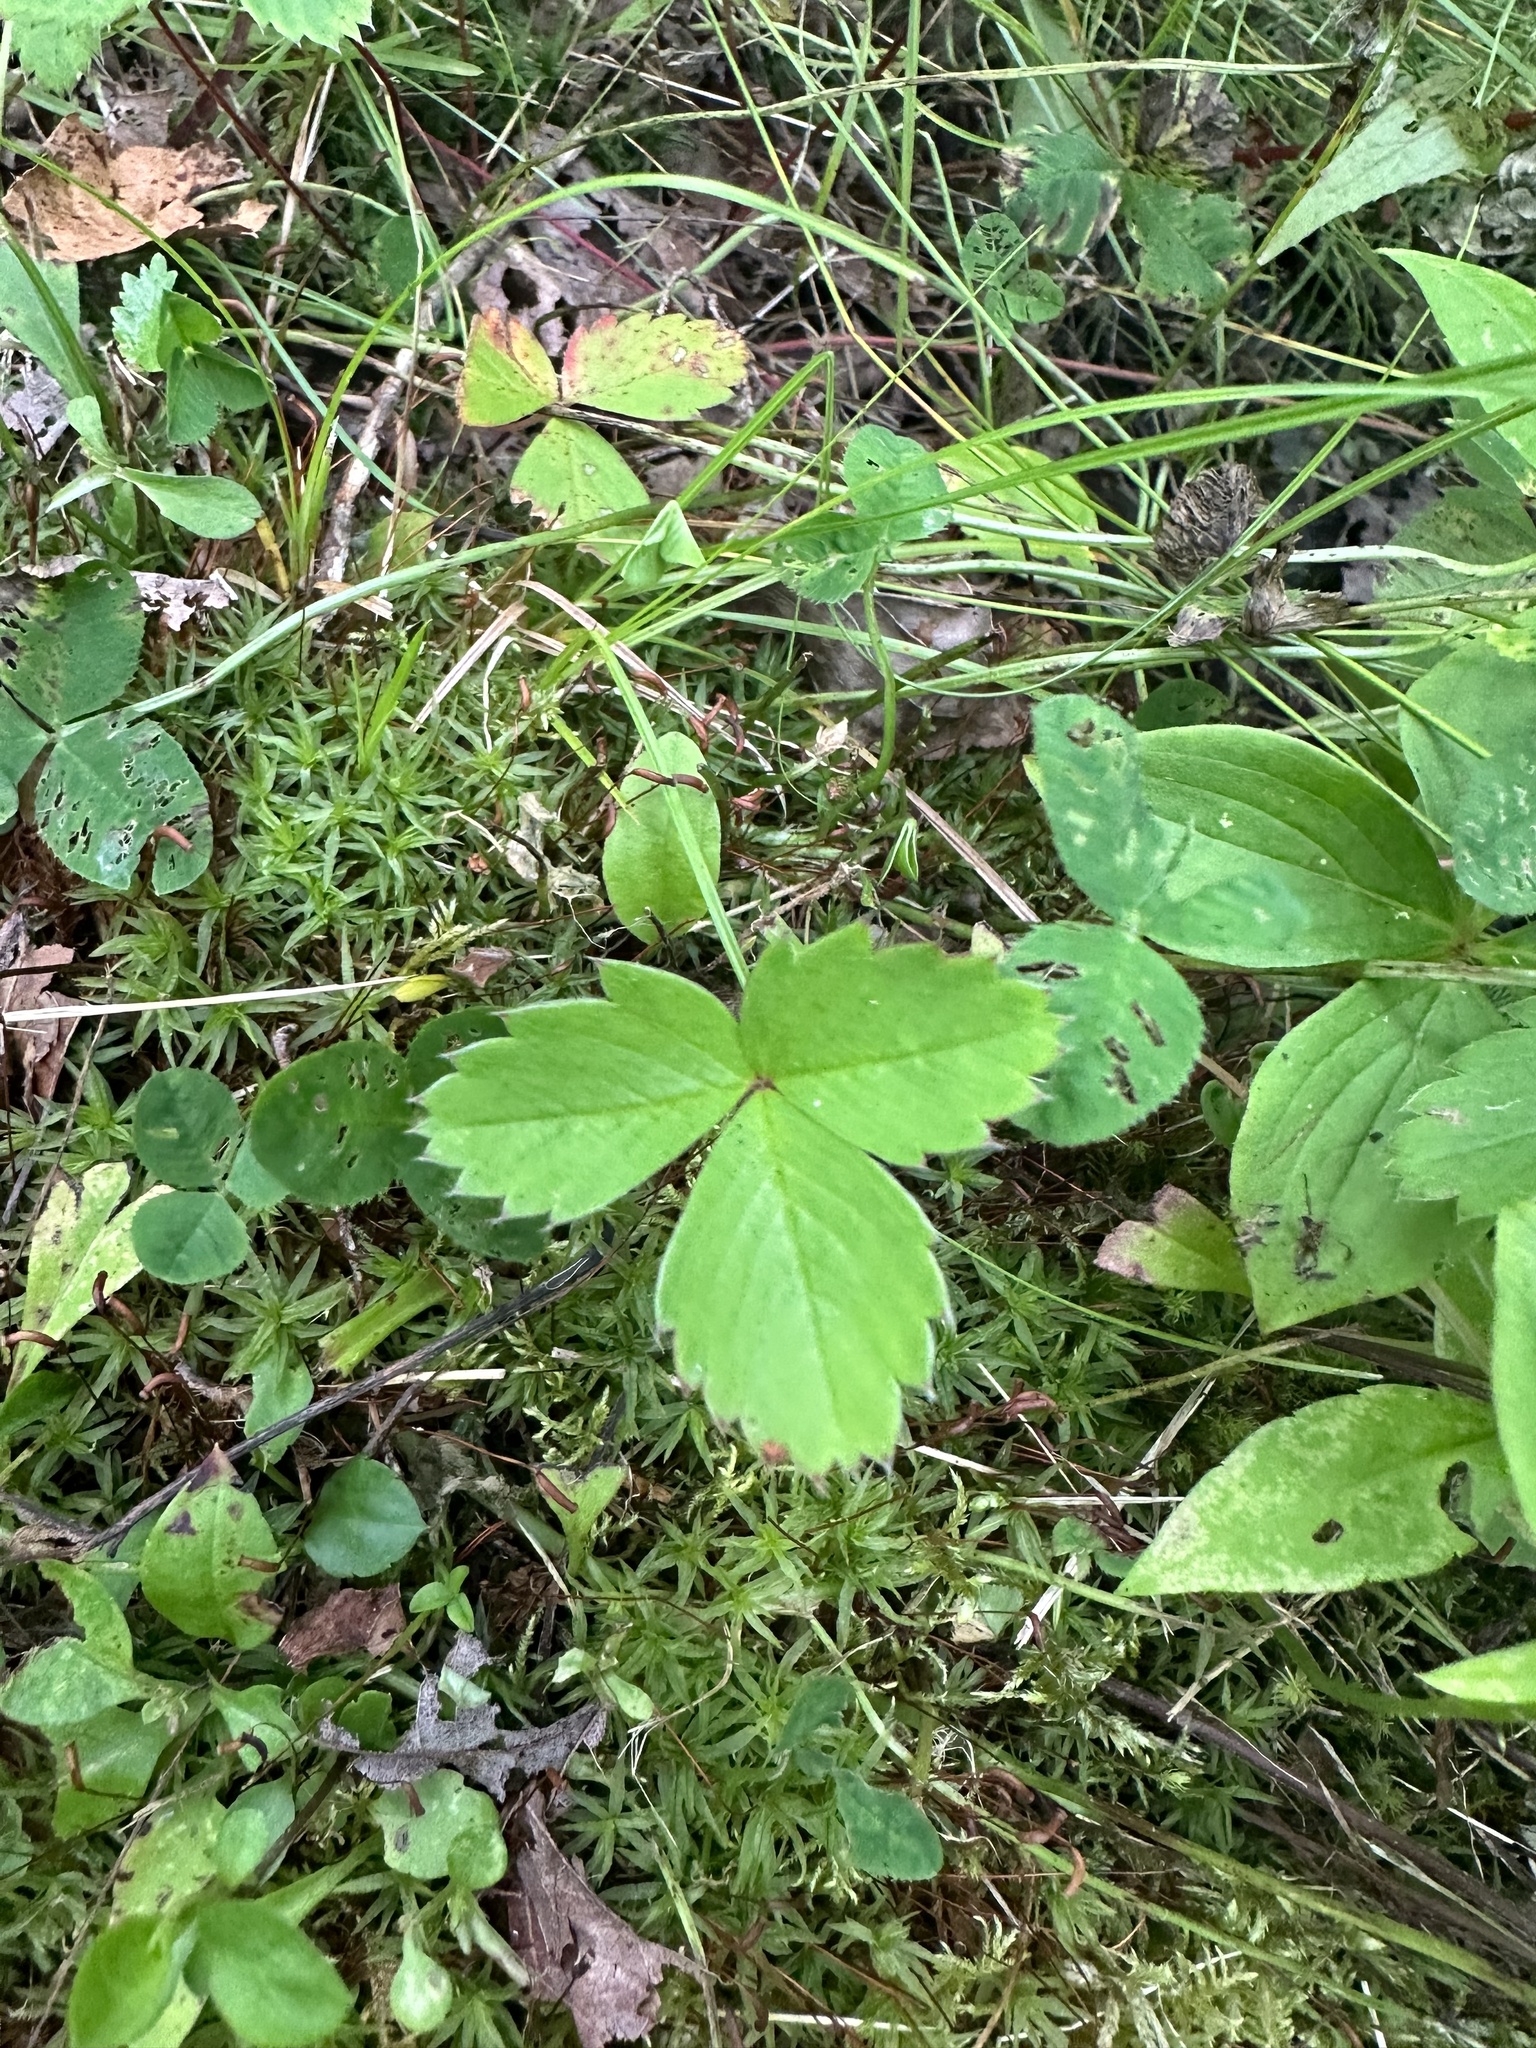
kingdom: Plantae
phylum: Tracheophyta
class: Magnoliopsida
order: Rosales
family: Rosaceae
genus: Fragaria
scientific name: Fragaria virginiana
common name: Thickleaved wild strawberry
